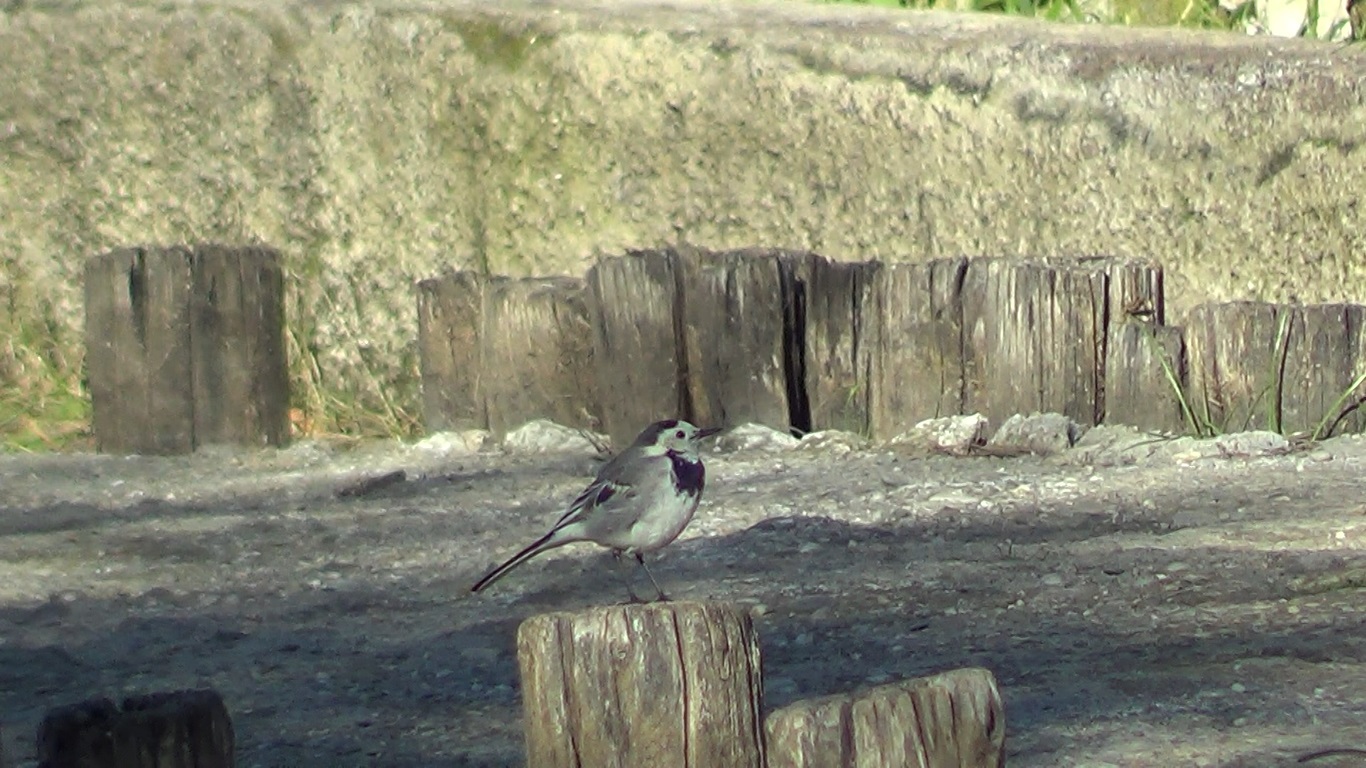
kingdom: Animalia
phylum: Chordata
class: Aves
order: Passeriformes
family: Motacillidae
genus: Motacilla
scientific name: Motacilla alba
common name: White wagtail
